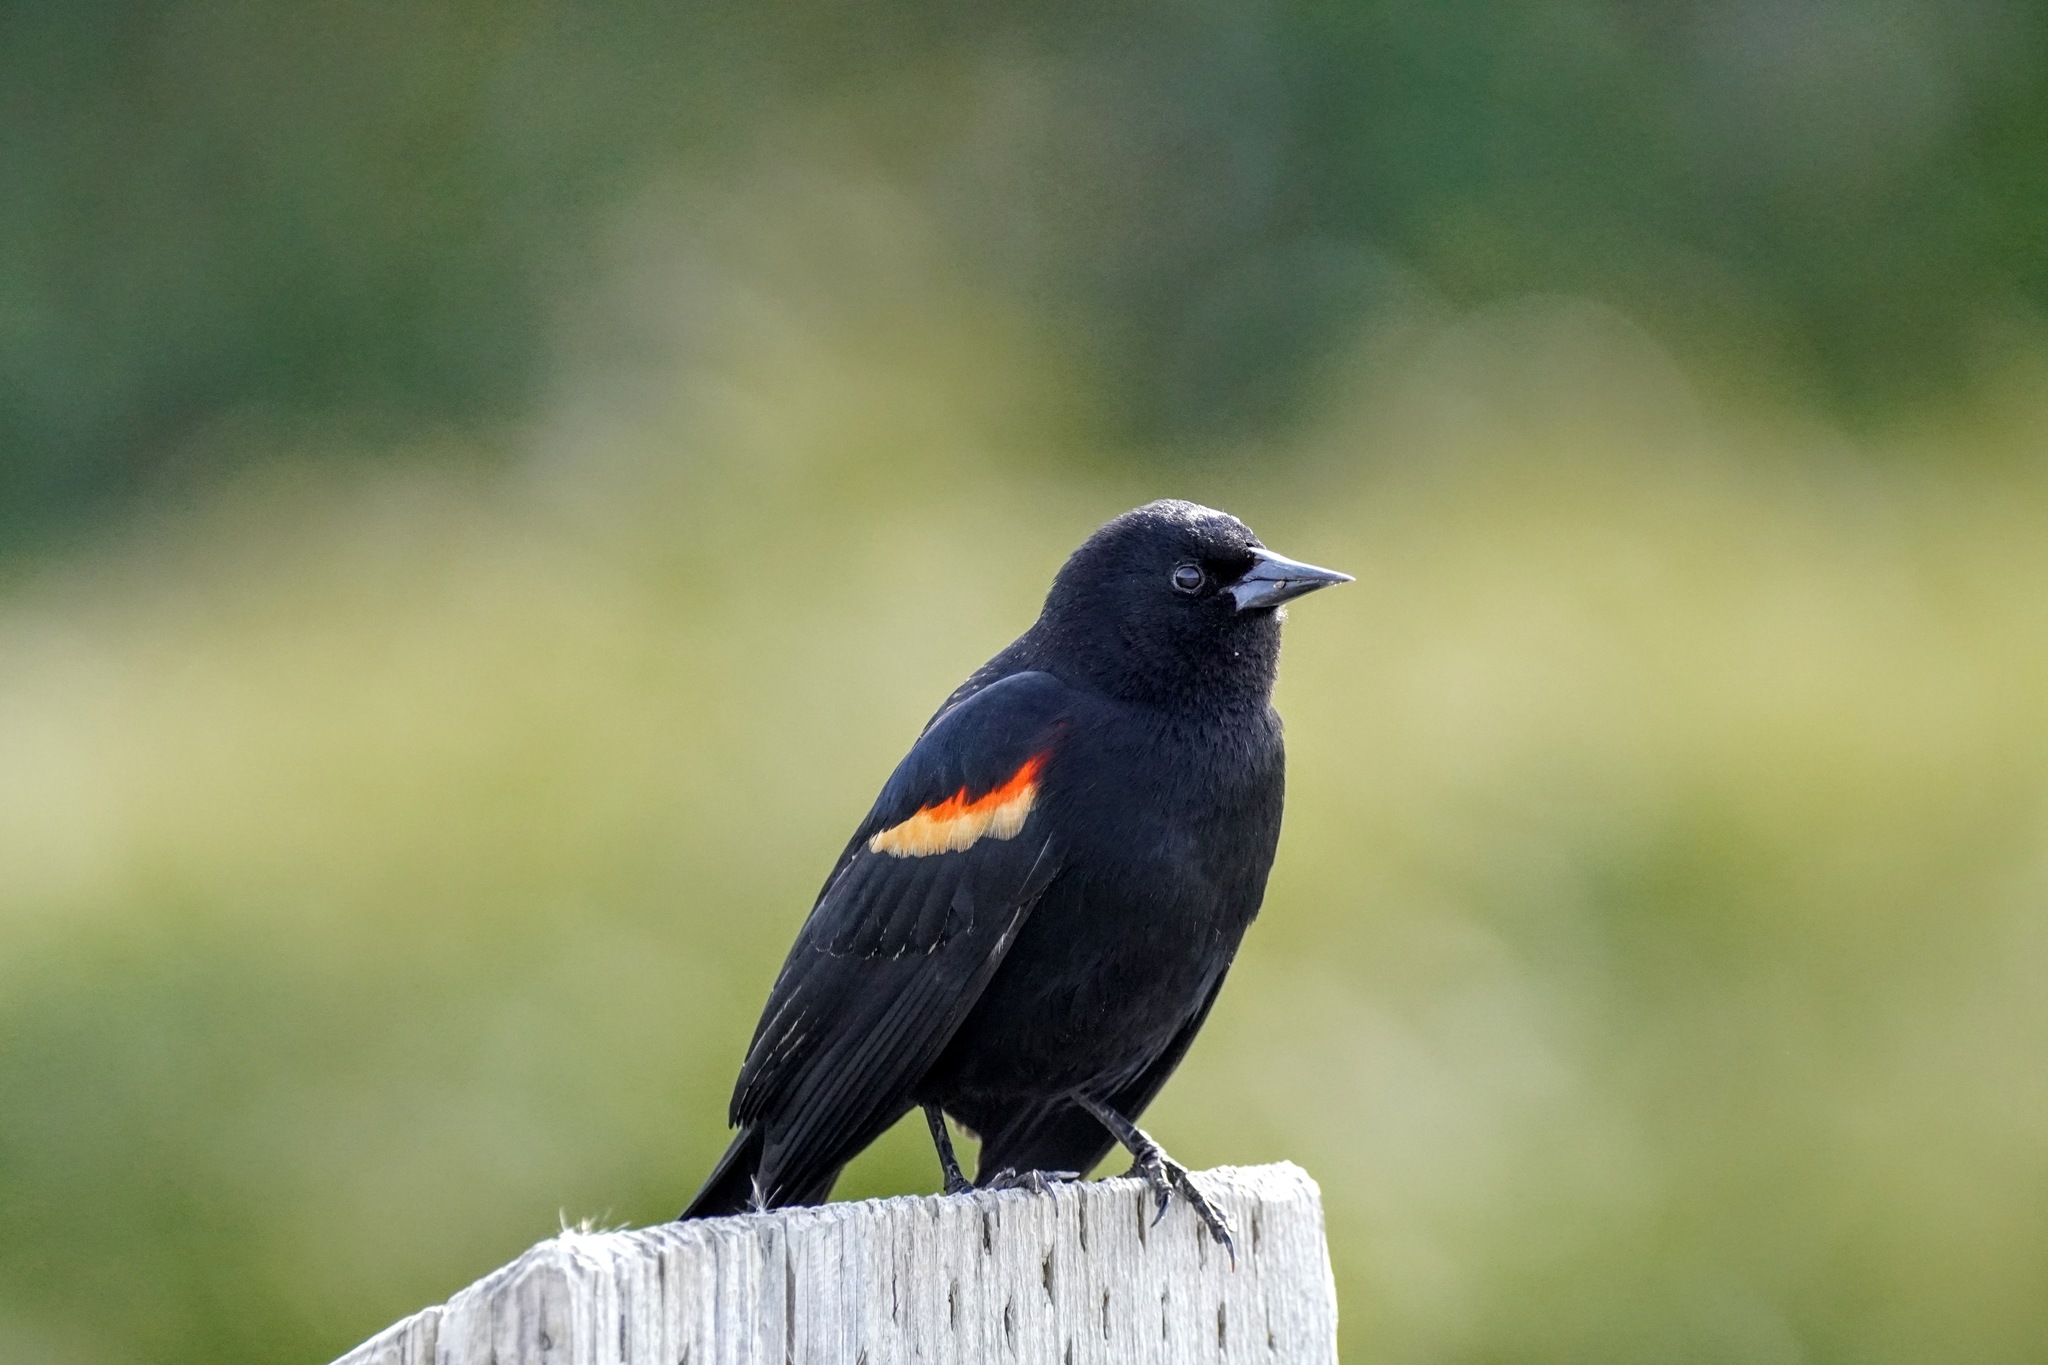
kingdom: Animalia
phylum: Chordata
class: Aves
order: Passeriformes
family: Icteridae
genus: Agelaius
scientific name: Agelaius phoeniceus
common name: Red-winged blackbird
